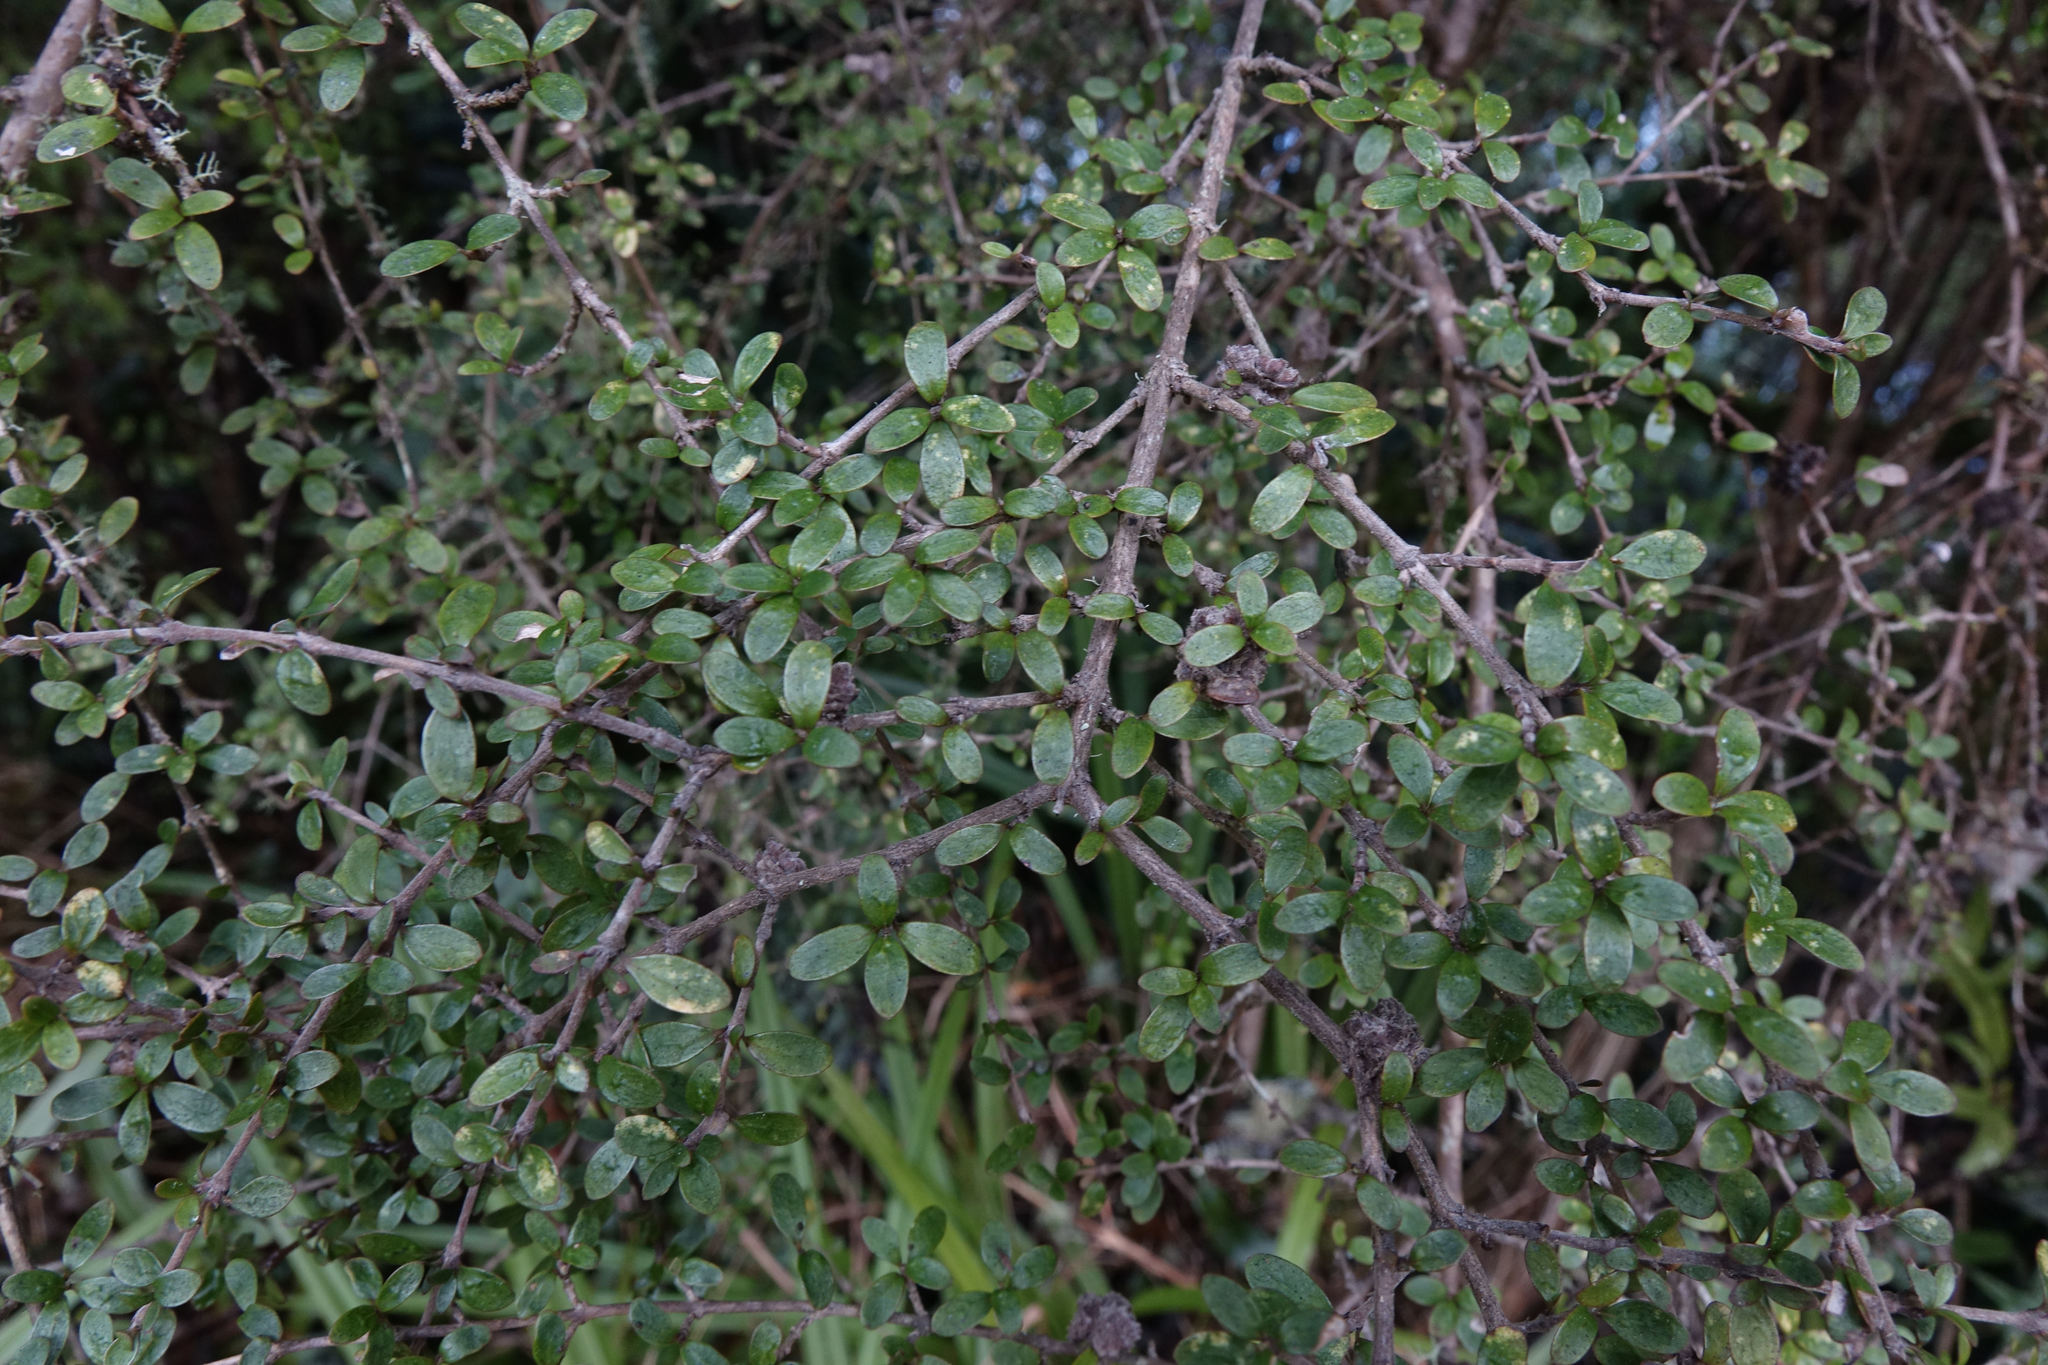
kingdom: Plantae
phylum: Tracheophyta
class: Magnoliopsida
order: Gentianales
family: Rubiaceae
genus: Coprosma
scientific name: Coprosma dumosa
